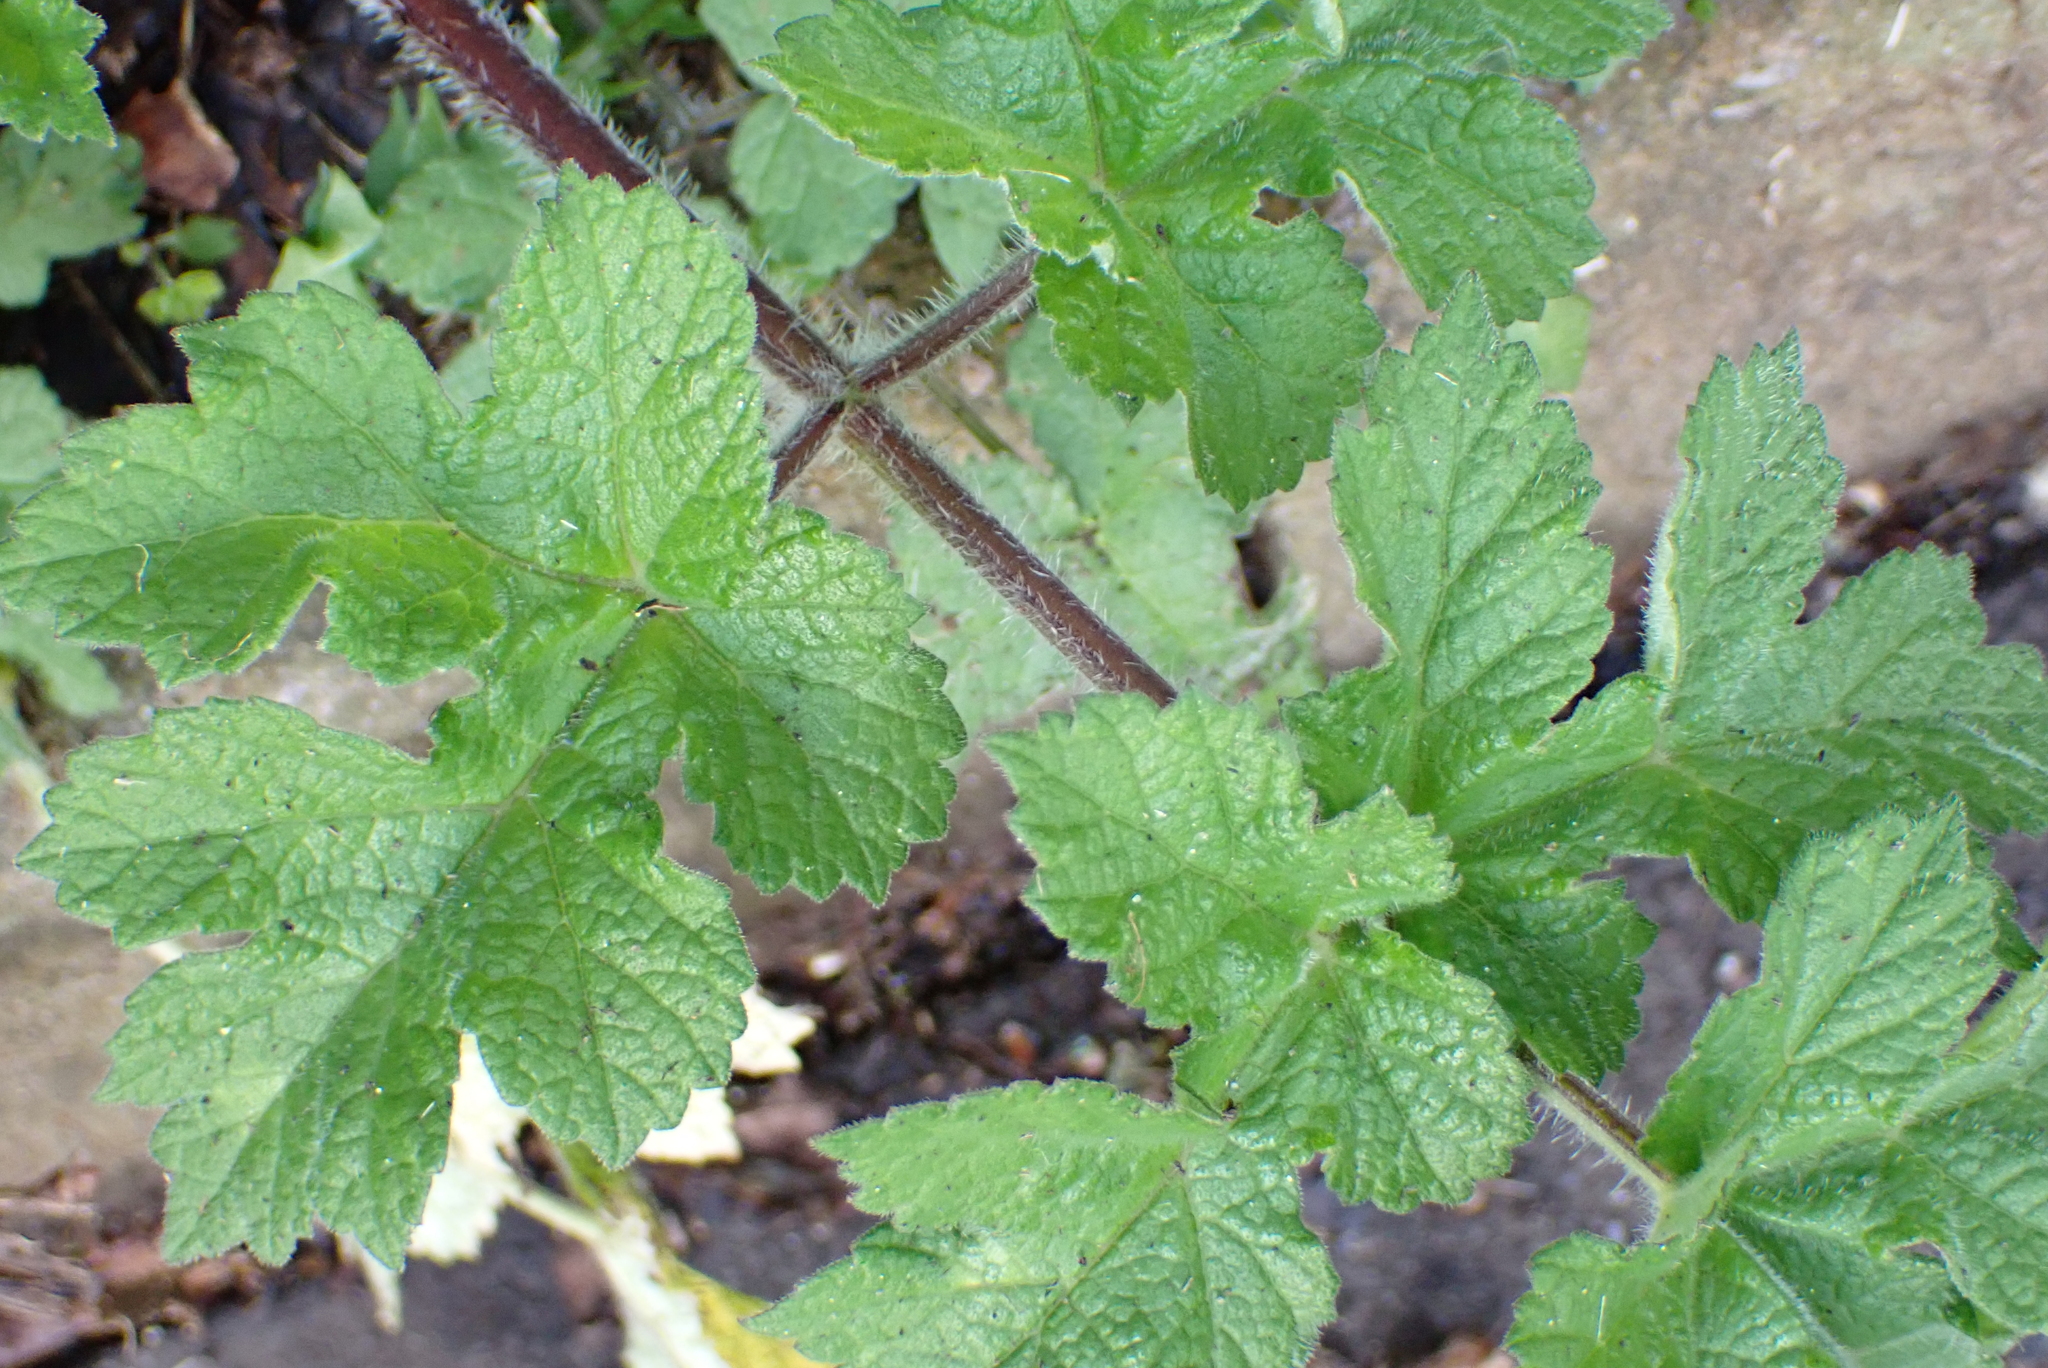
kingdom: Plantae
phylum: Tracheophyta
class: Magnoliopsida
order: Apiales
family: Apiaceae
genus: Heracleum
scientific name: Heracleum sphondylium
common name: Hogweed
